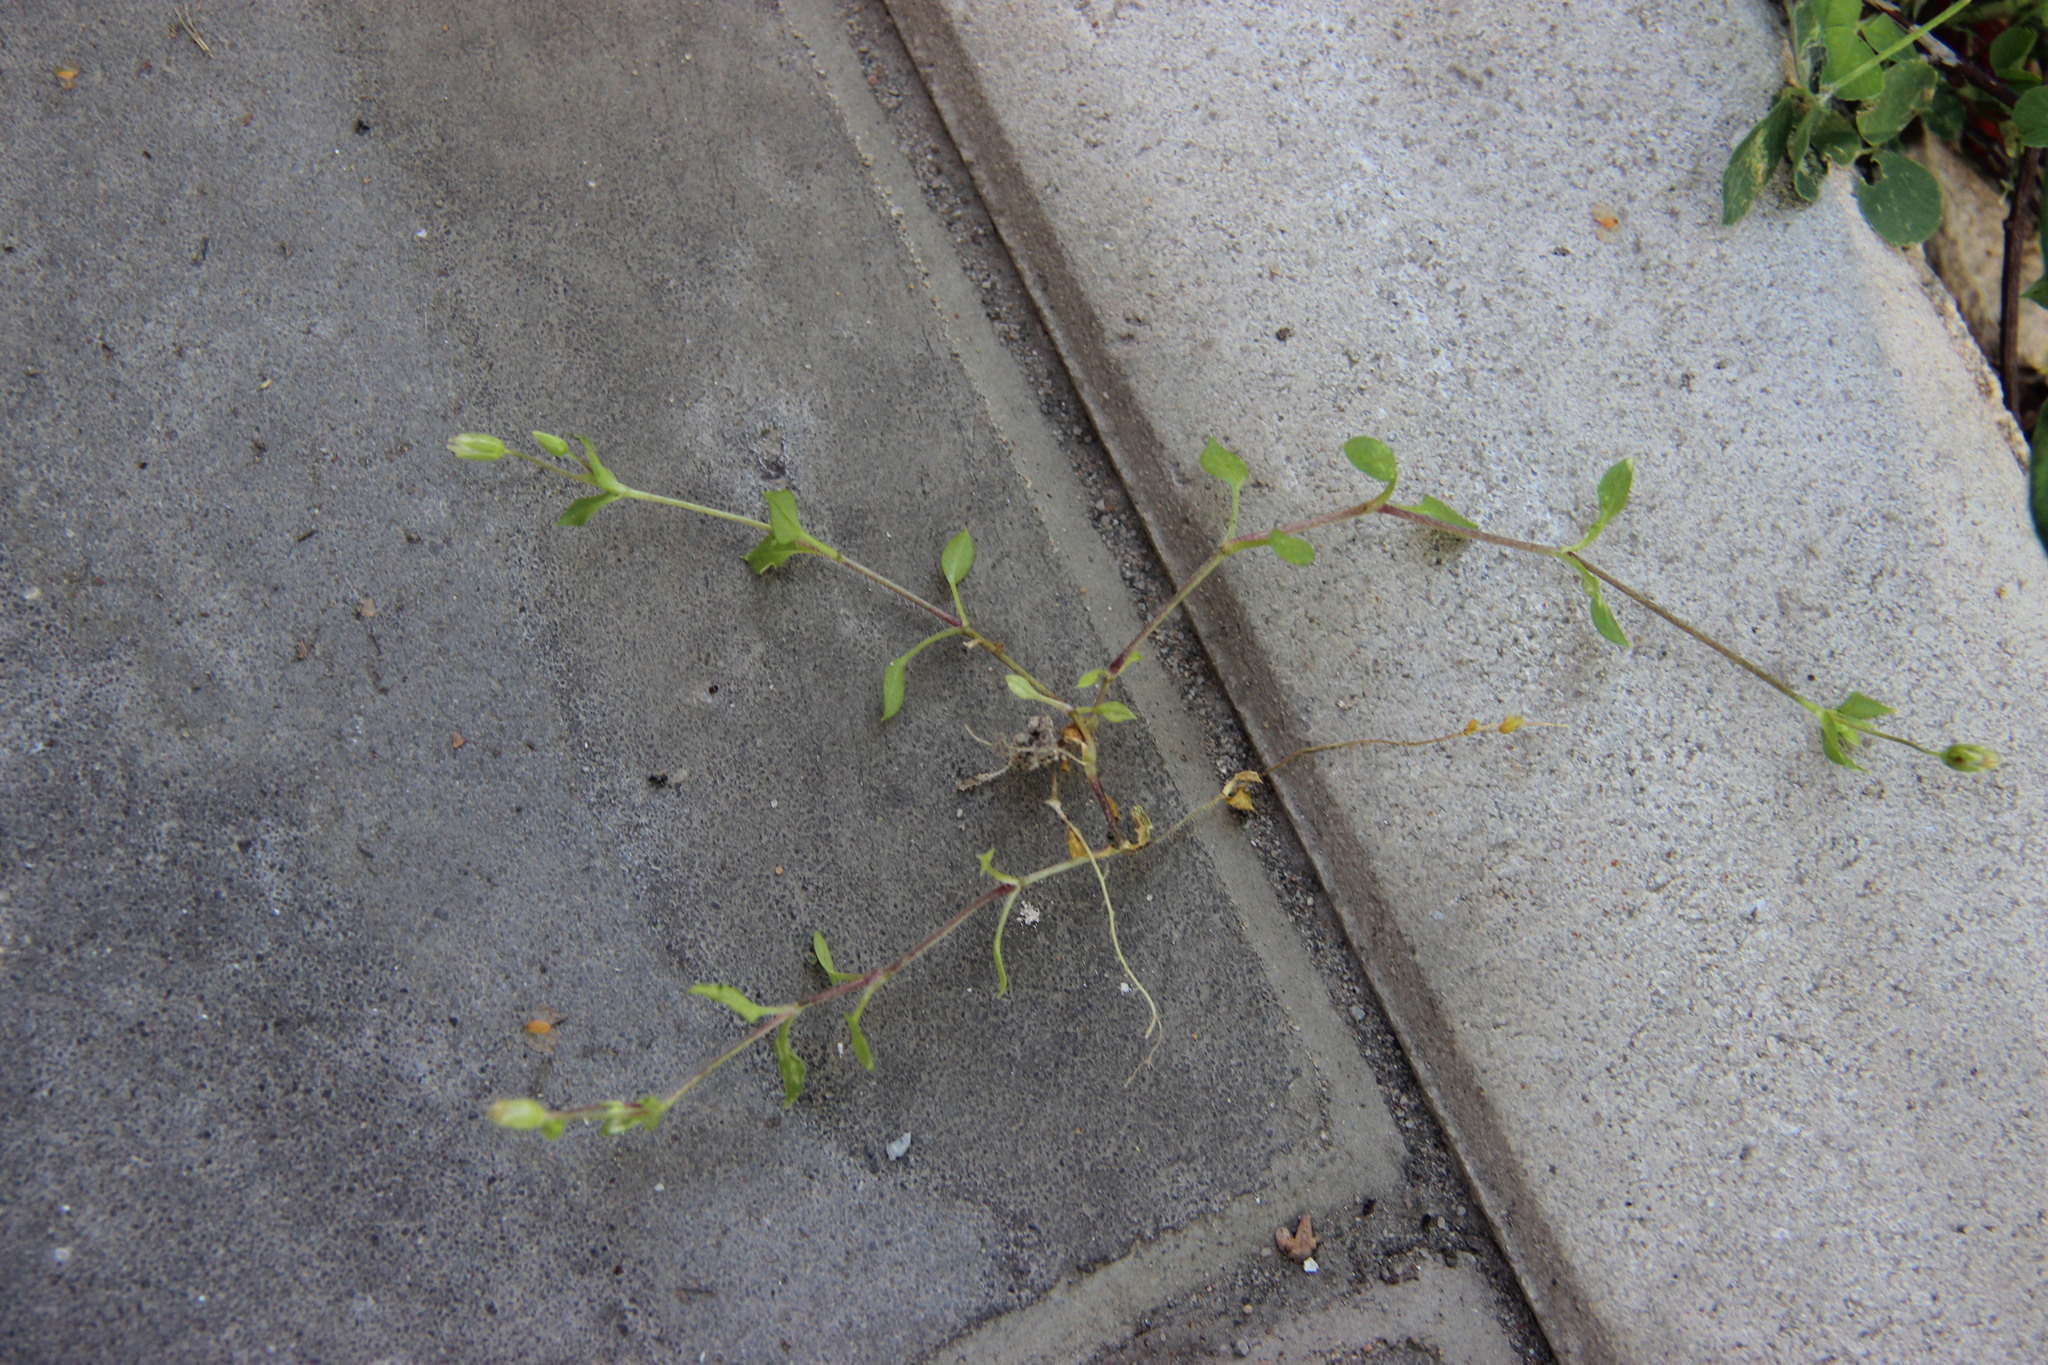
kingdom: Plantae
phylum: Tracheophyta
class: Magnoliopsida
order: Caryophyllales
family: Caryophyllaceae
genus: Stellaria
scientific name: Stellaria media
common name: Common chickweed
